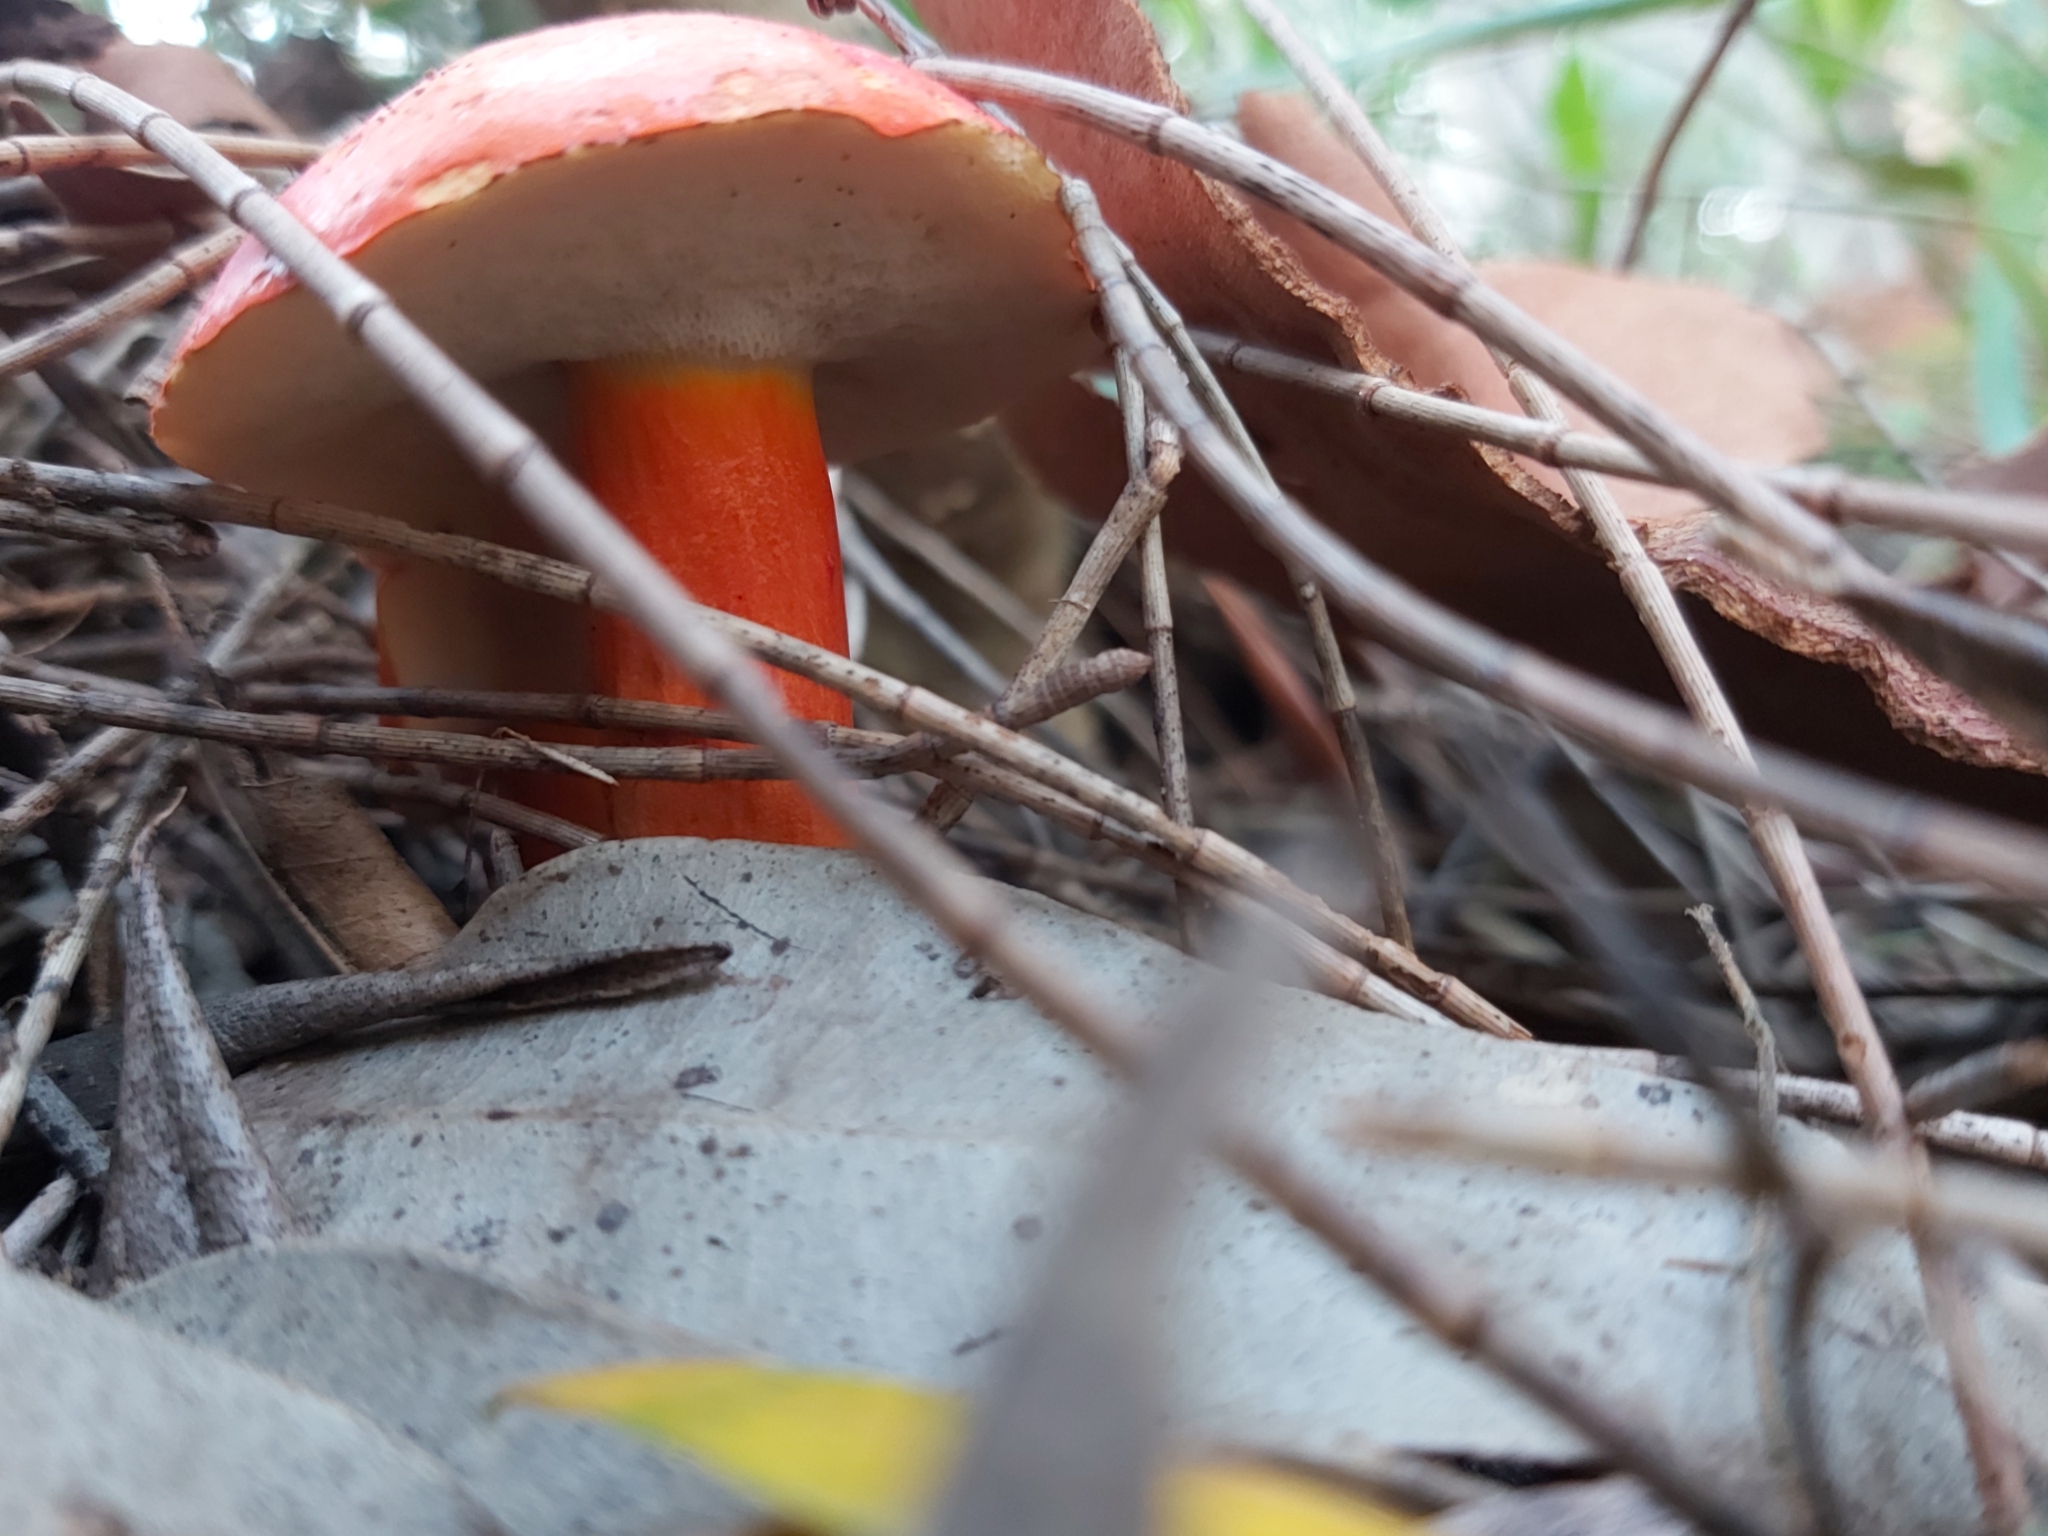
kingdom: Fungi
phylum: Basidiomycota
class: Agaricomycetes
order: Boletales
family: Boletaceae
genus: Tylopilus
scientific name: Tylopilus balloui
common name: Burnt-orange bolete
